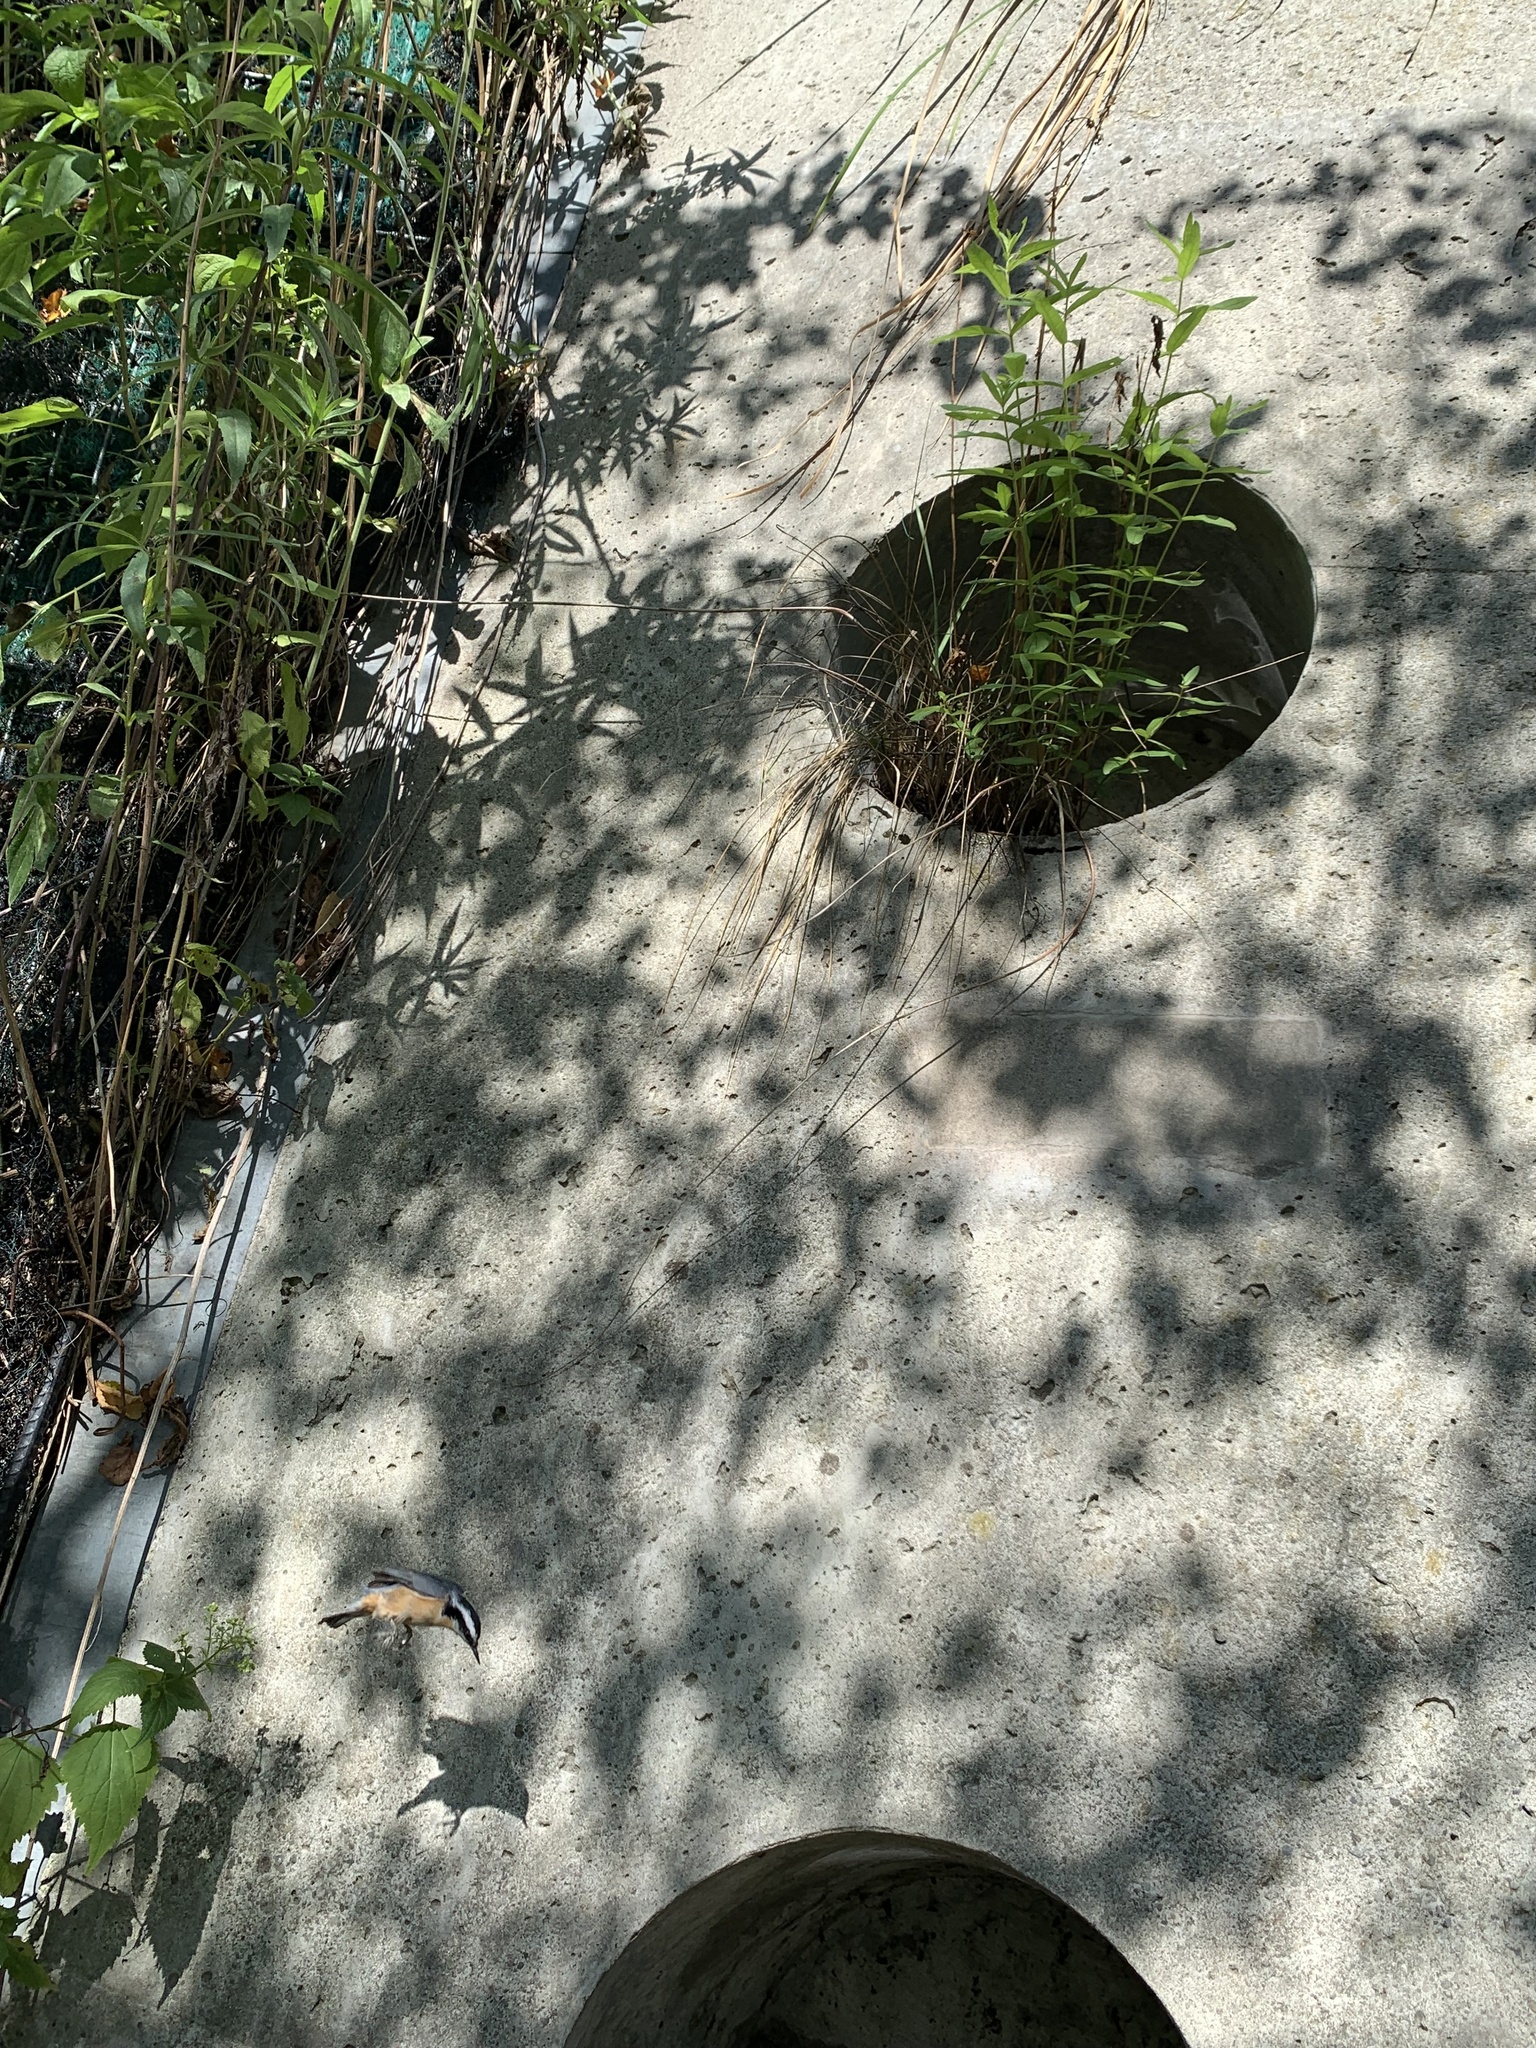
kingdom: Animalia
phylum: Chordata
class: Aves
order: Passeriformes
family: Sittidae
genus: Sitta
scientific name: Sitta canadensis
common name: Red-breasted nuthatch
